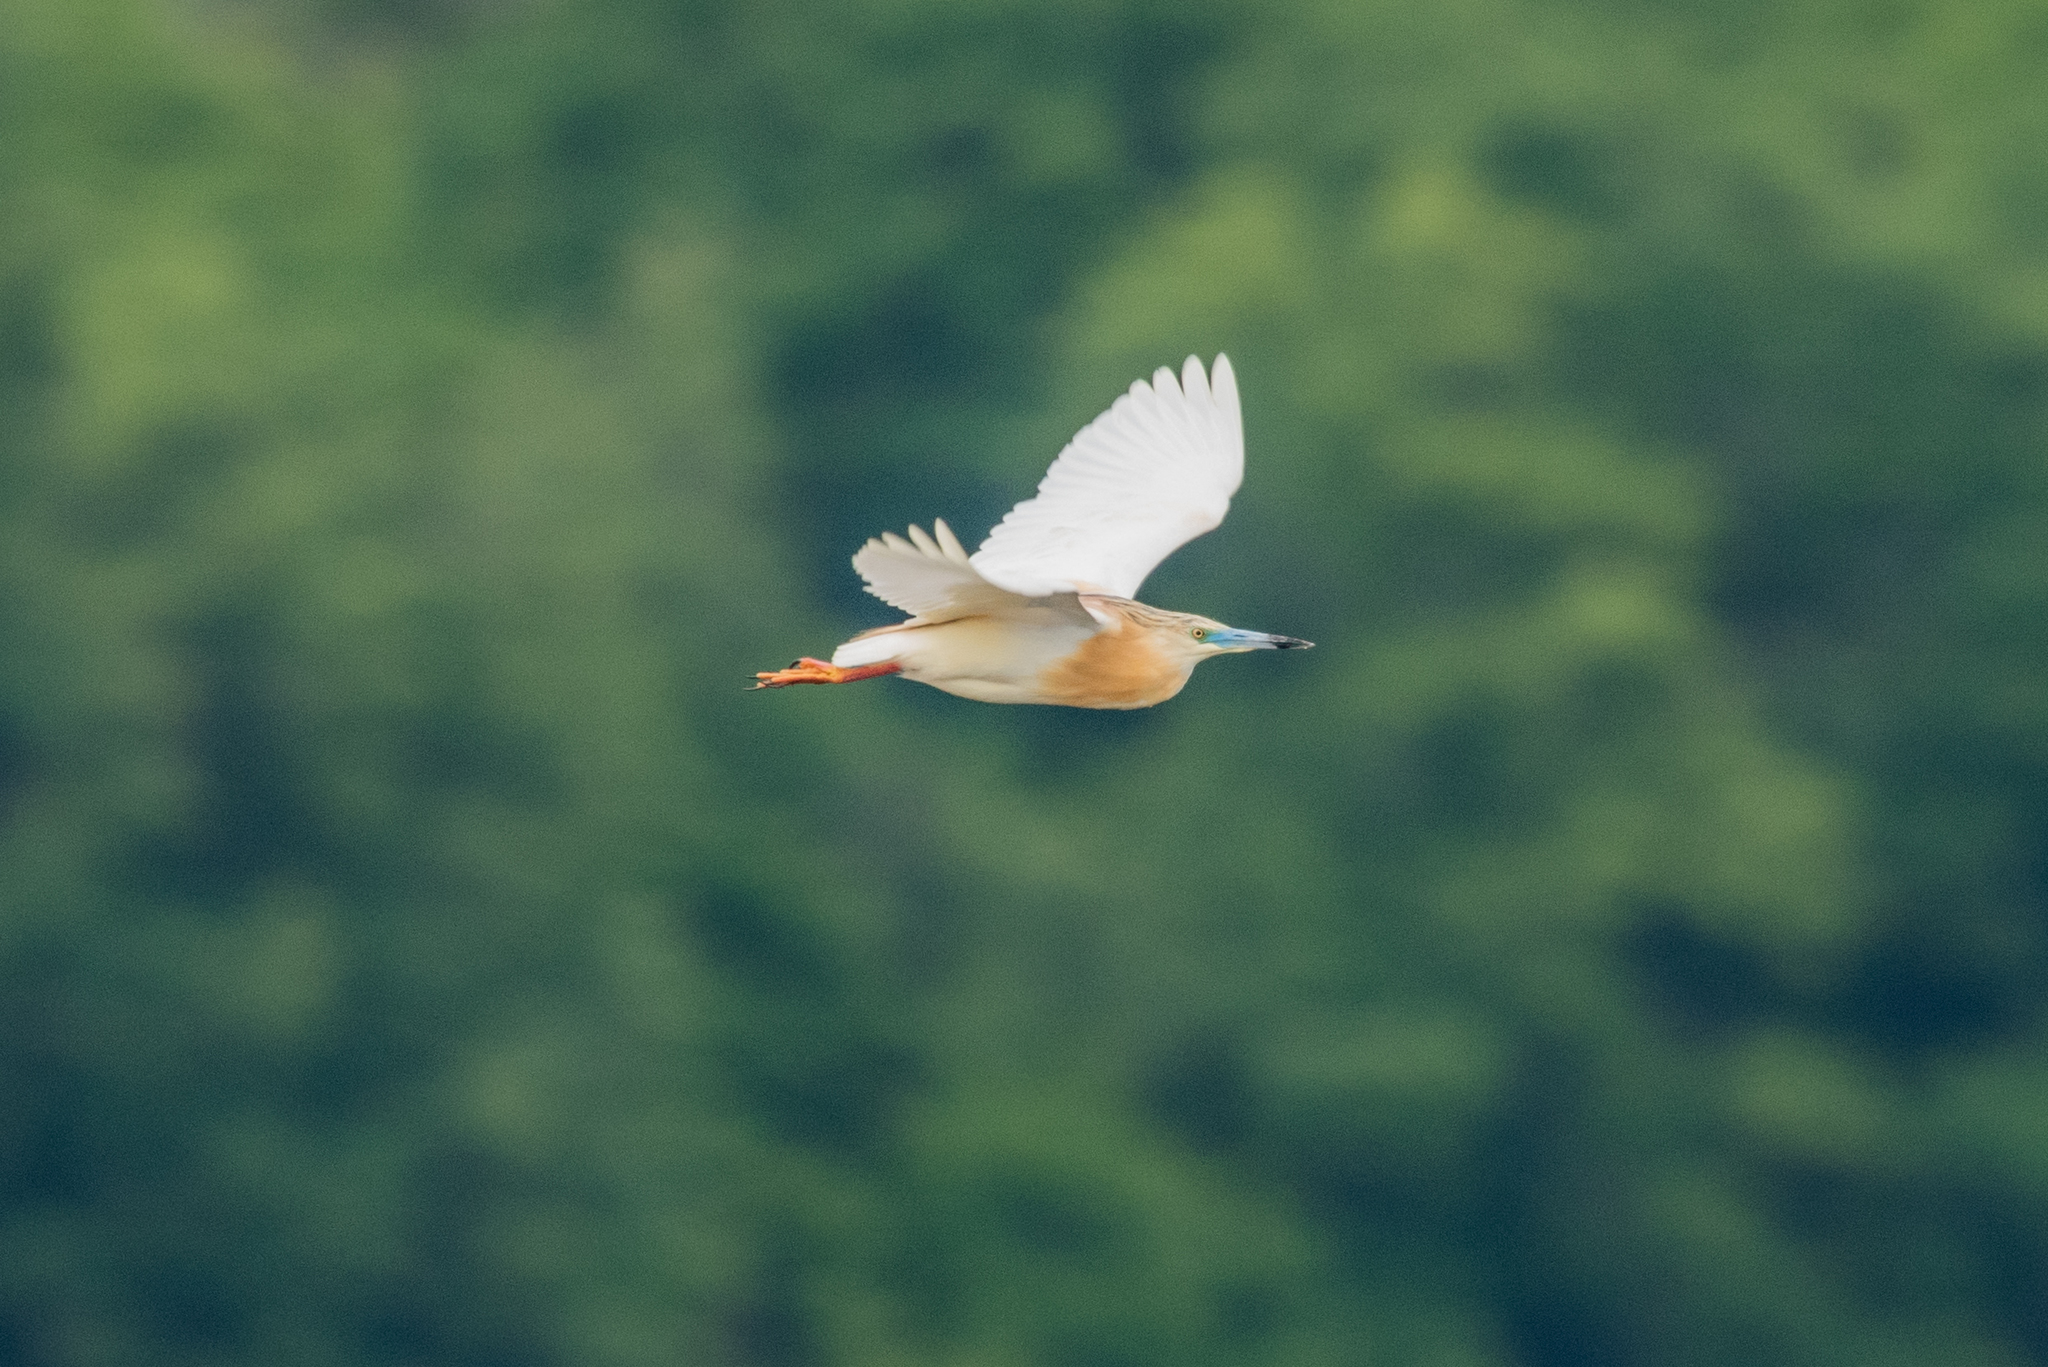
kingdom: Animalia
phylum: Chordata
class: Aves
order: Pelecaniformes
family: Ardeidae
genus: Ardeola
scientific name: Ardeola ralloides
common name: Squacco heron
